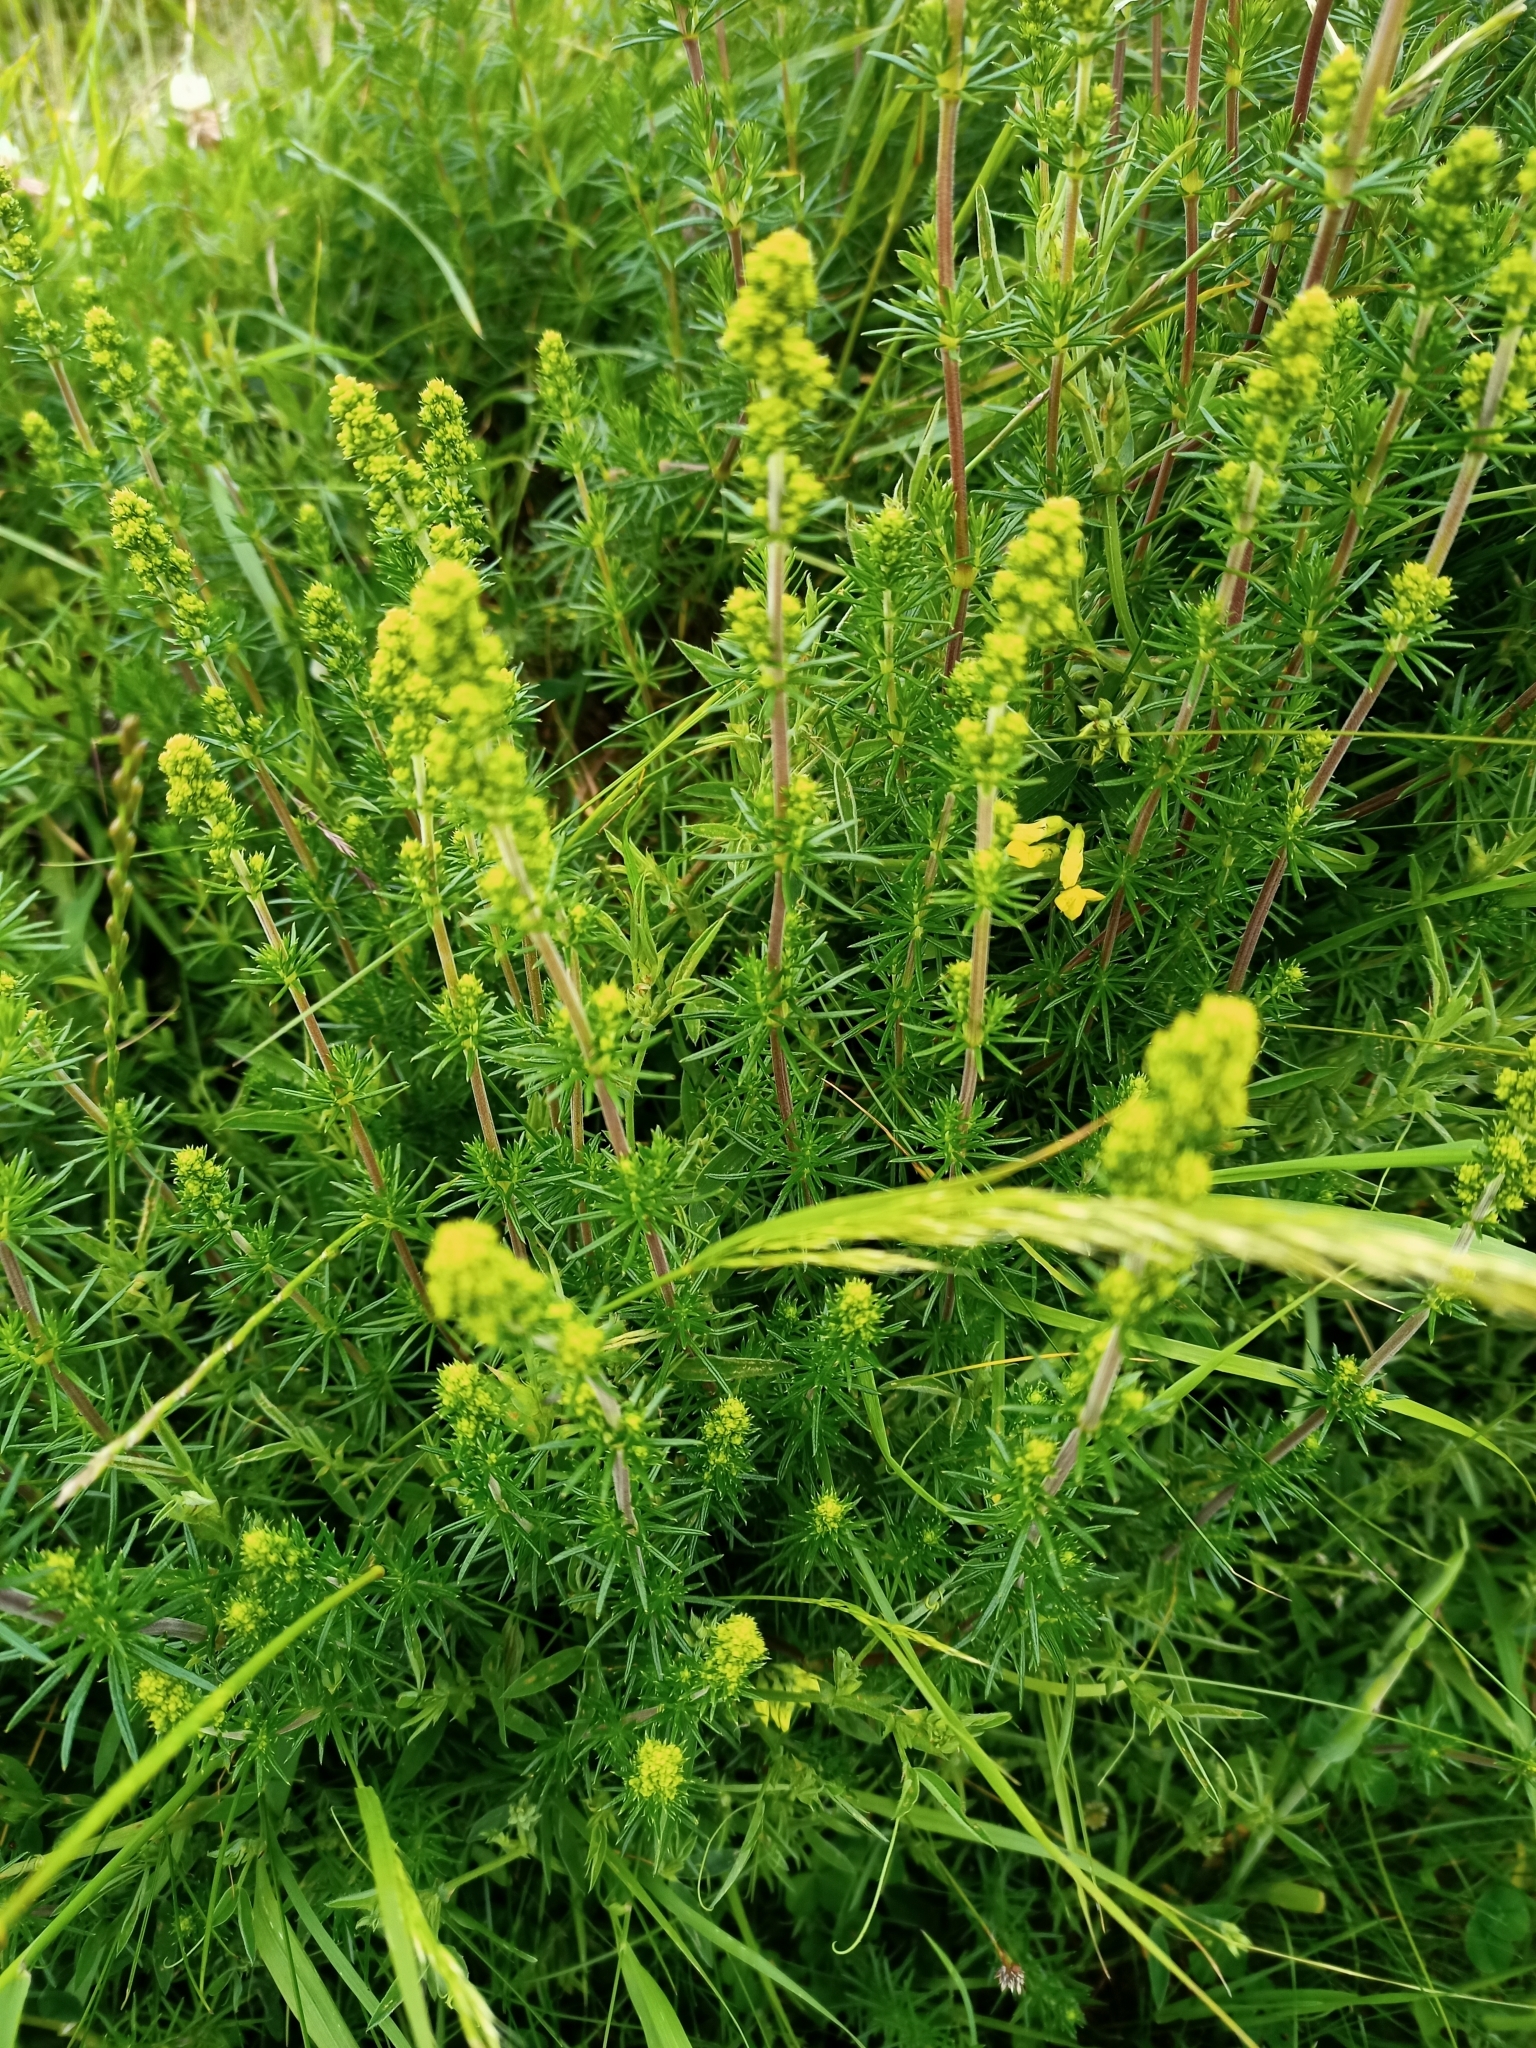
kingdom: Plantae
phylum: Tracheophyta
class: Magnoliopsida
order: Gentianales
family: Rubiaceae
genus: Galium
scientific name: Galium verum
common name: Lady's bedstraw
